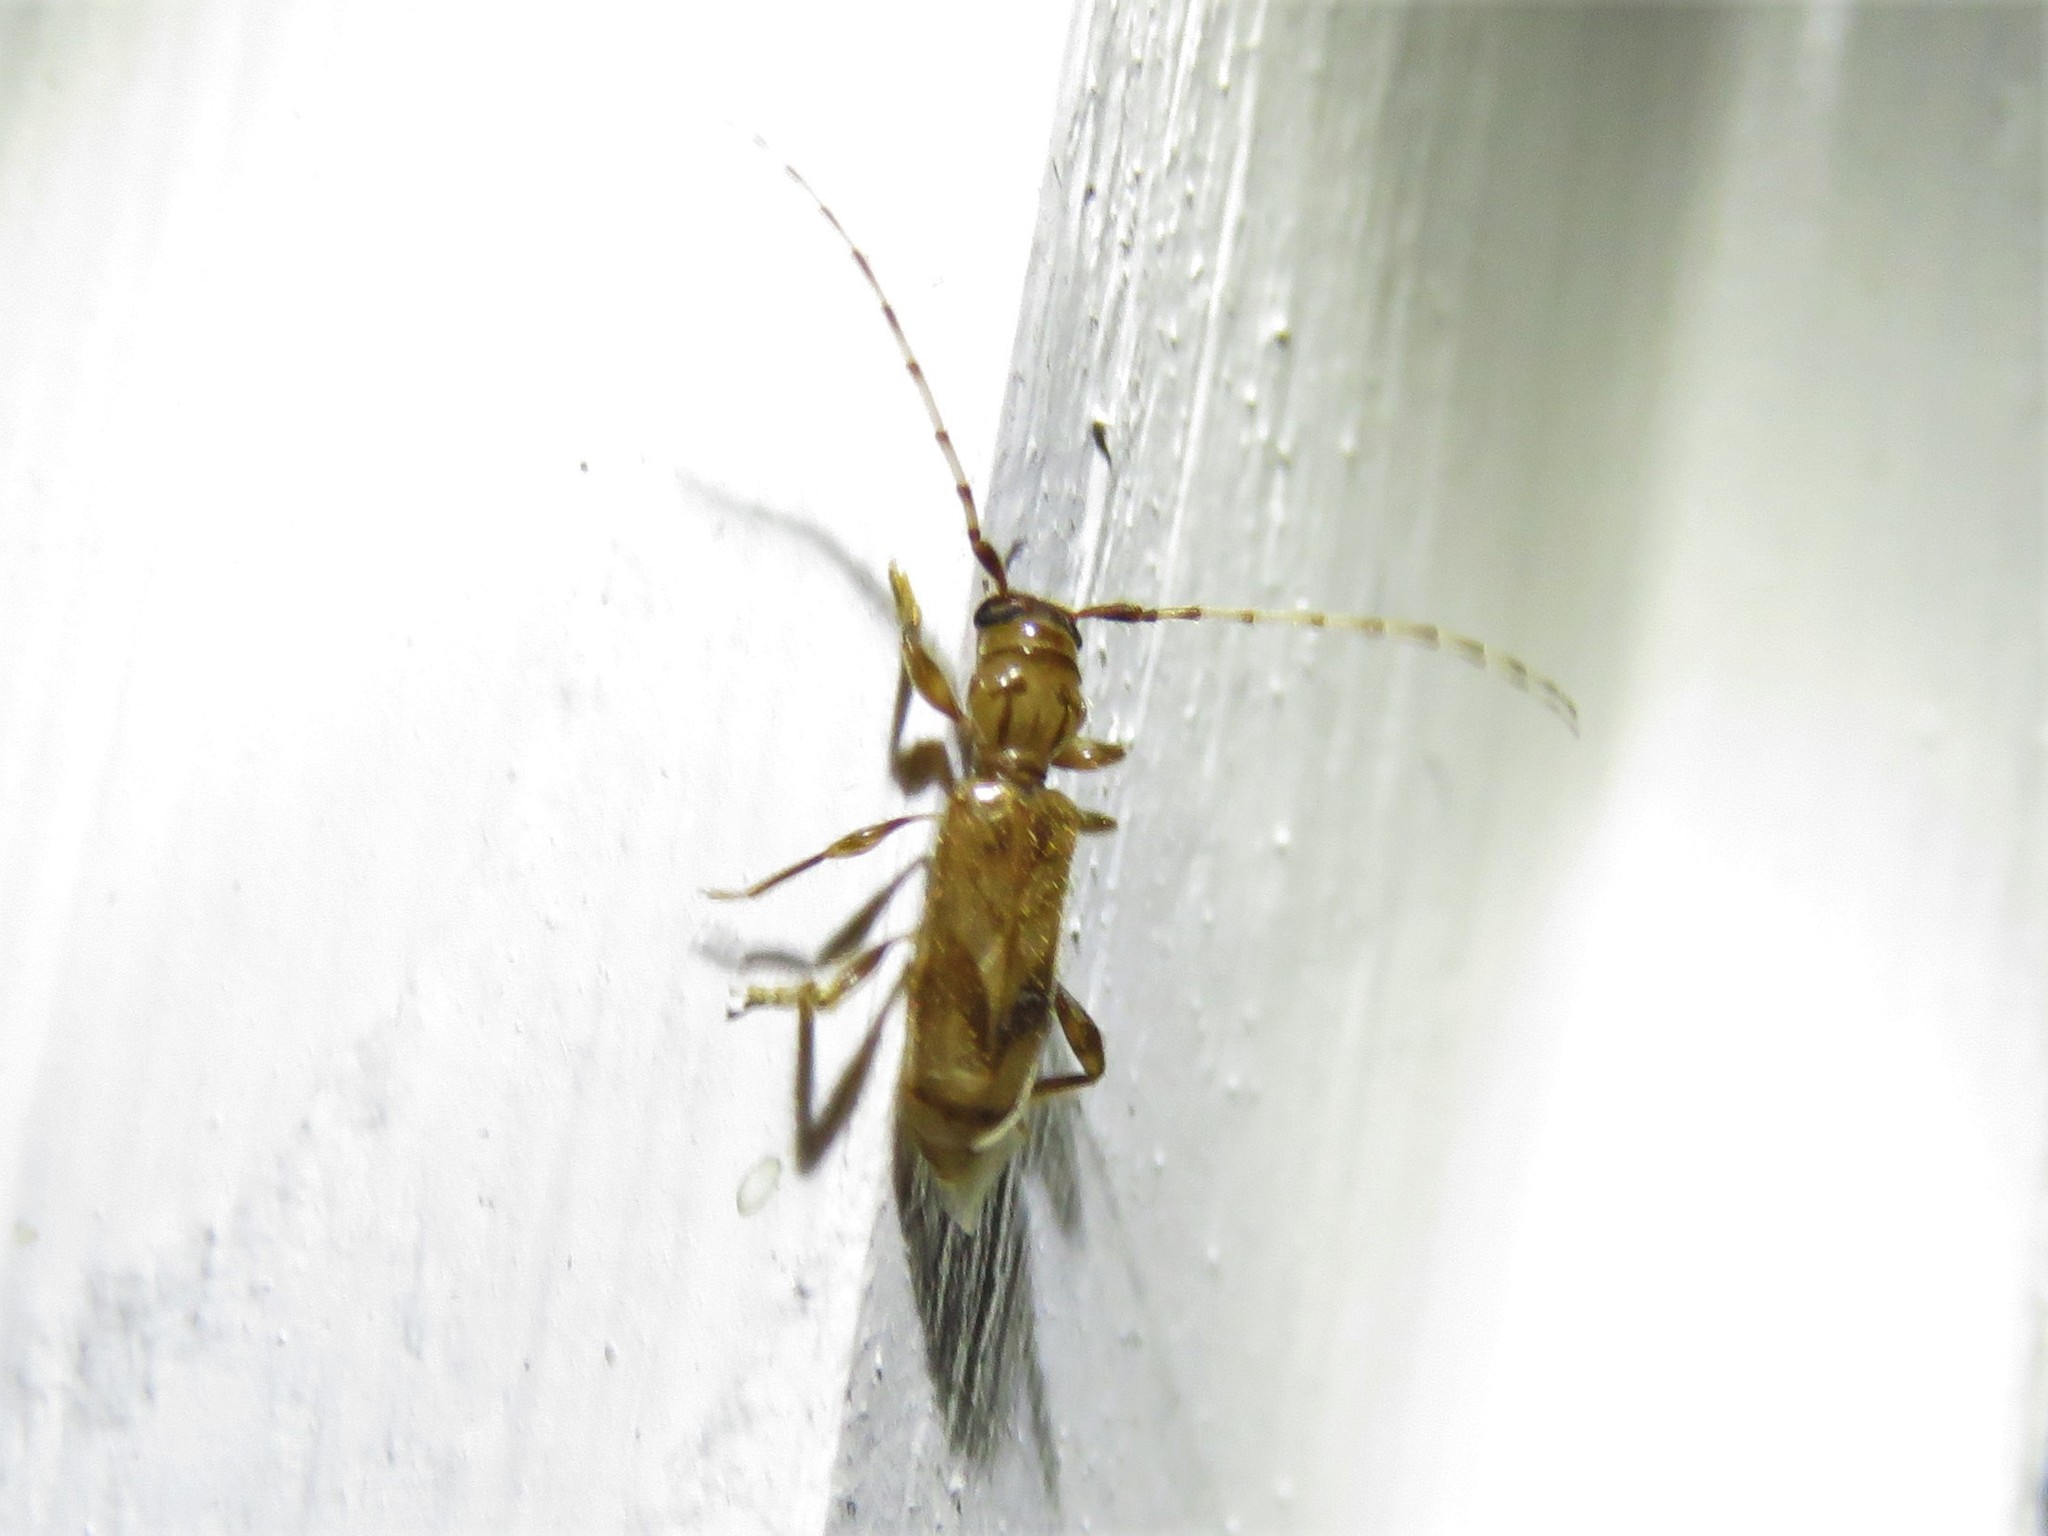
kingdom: Animalia
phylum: Arthropoda
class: Insecta
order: Coleoptera
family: Cerambycidae
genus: Obrium
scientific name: Obrium maculatum
